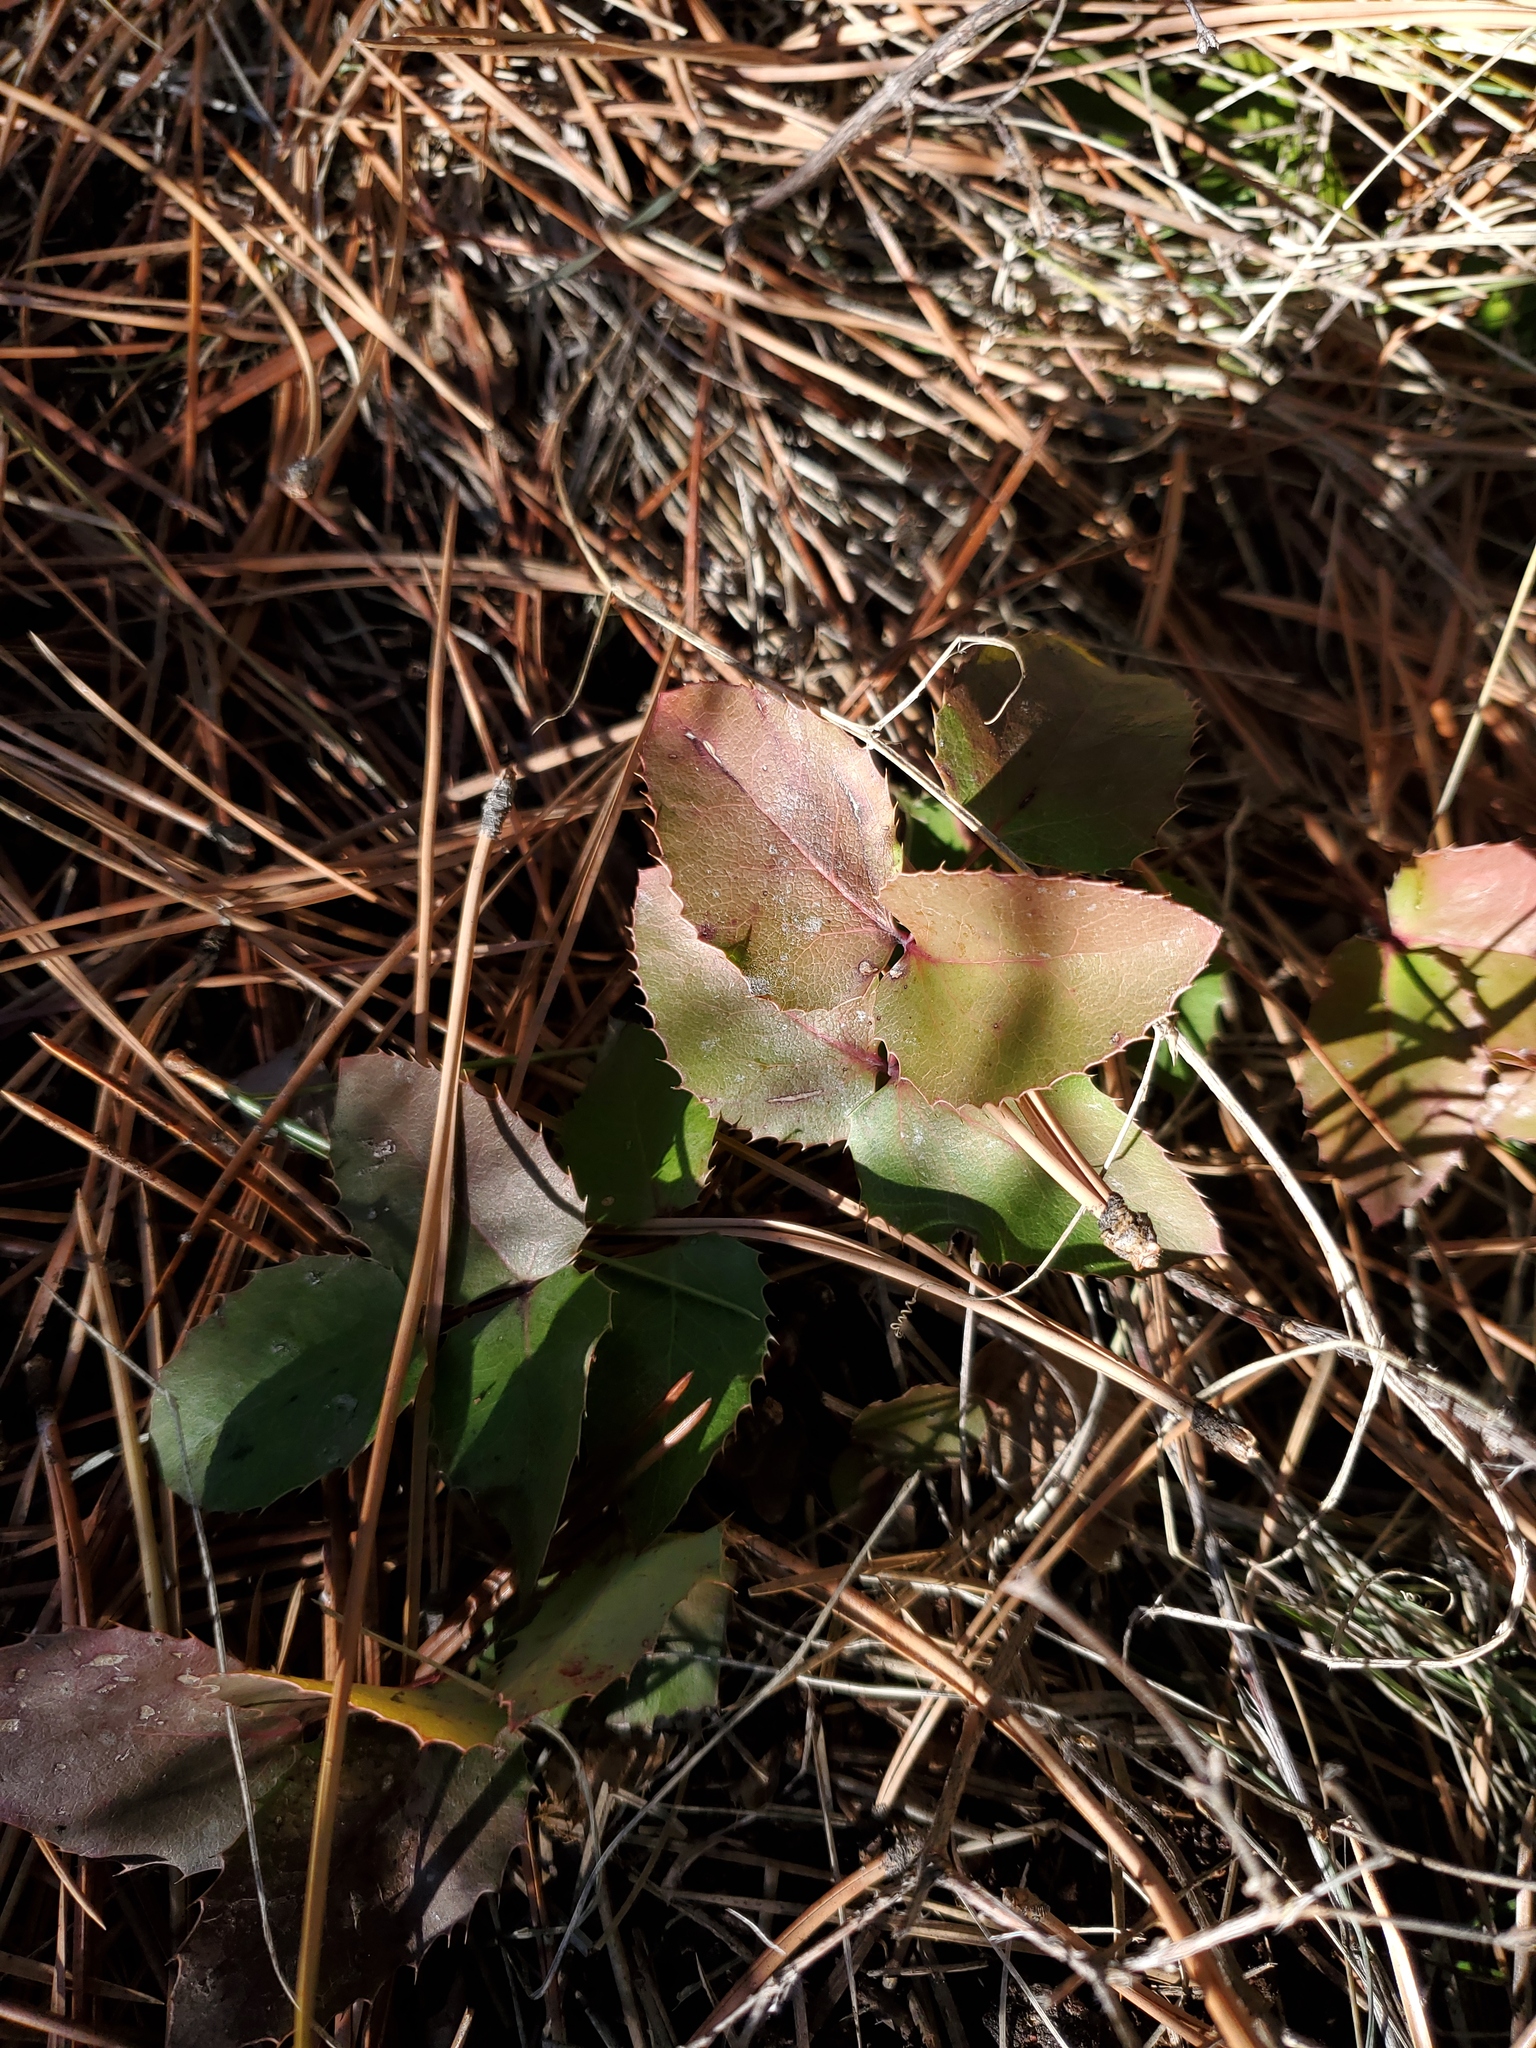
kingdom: Plantae
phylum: Tracheophyta
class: Magnoliopsida
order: Ranunculales
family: Berberidaceae
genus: Mahonia
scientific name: Mahonia repens
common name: Creeping oregon-grape
